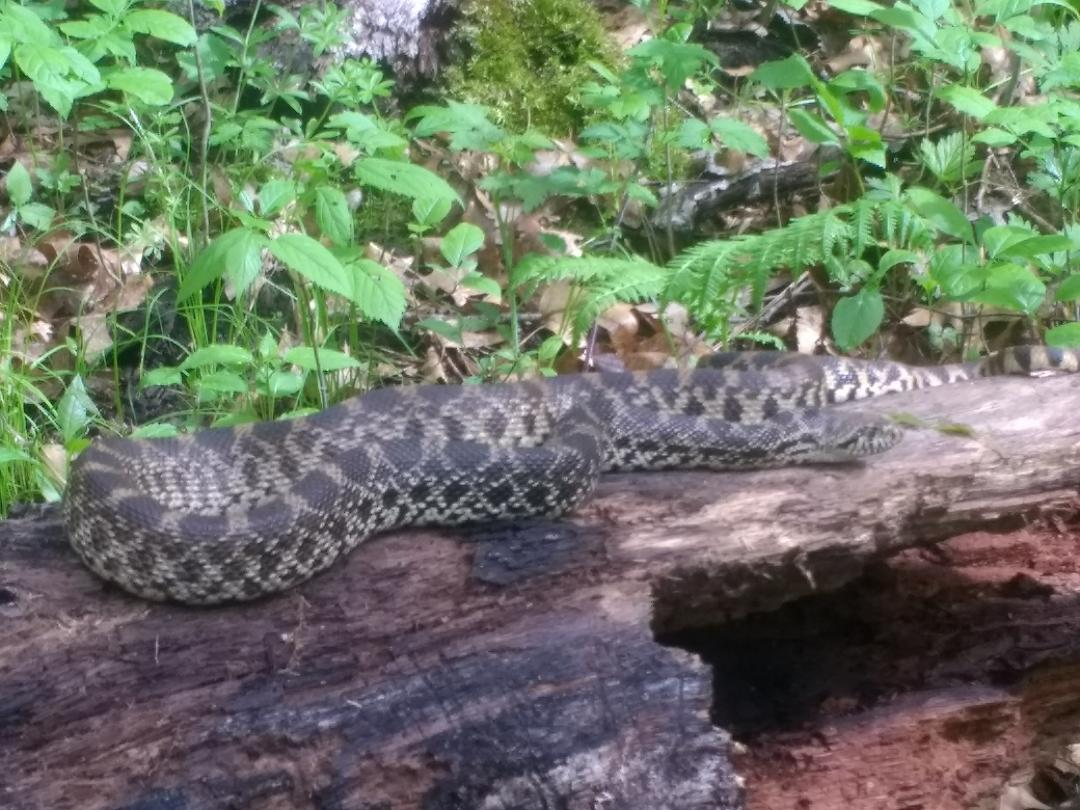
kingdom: Animalia
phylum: Chordata
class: Squamata
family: Colubridae
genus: Pituophis
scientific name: Pituophis catenifer
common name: Gopher snake
